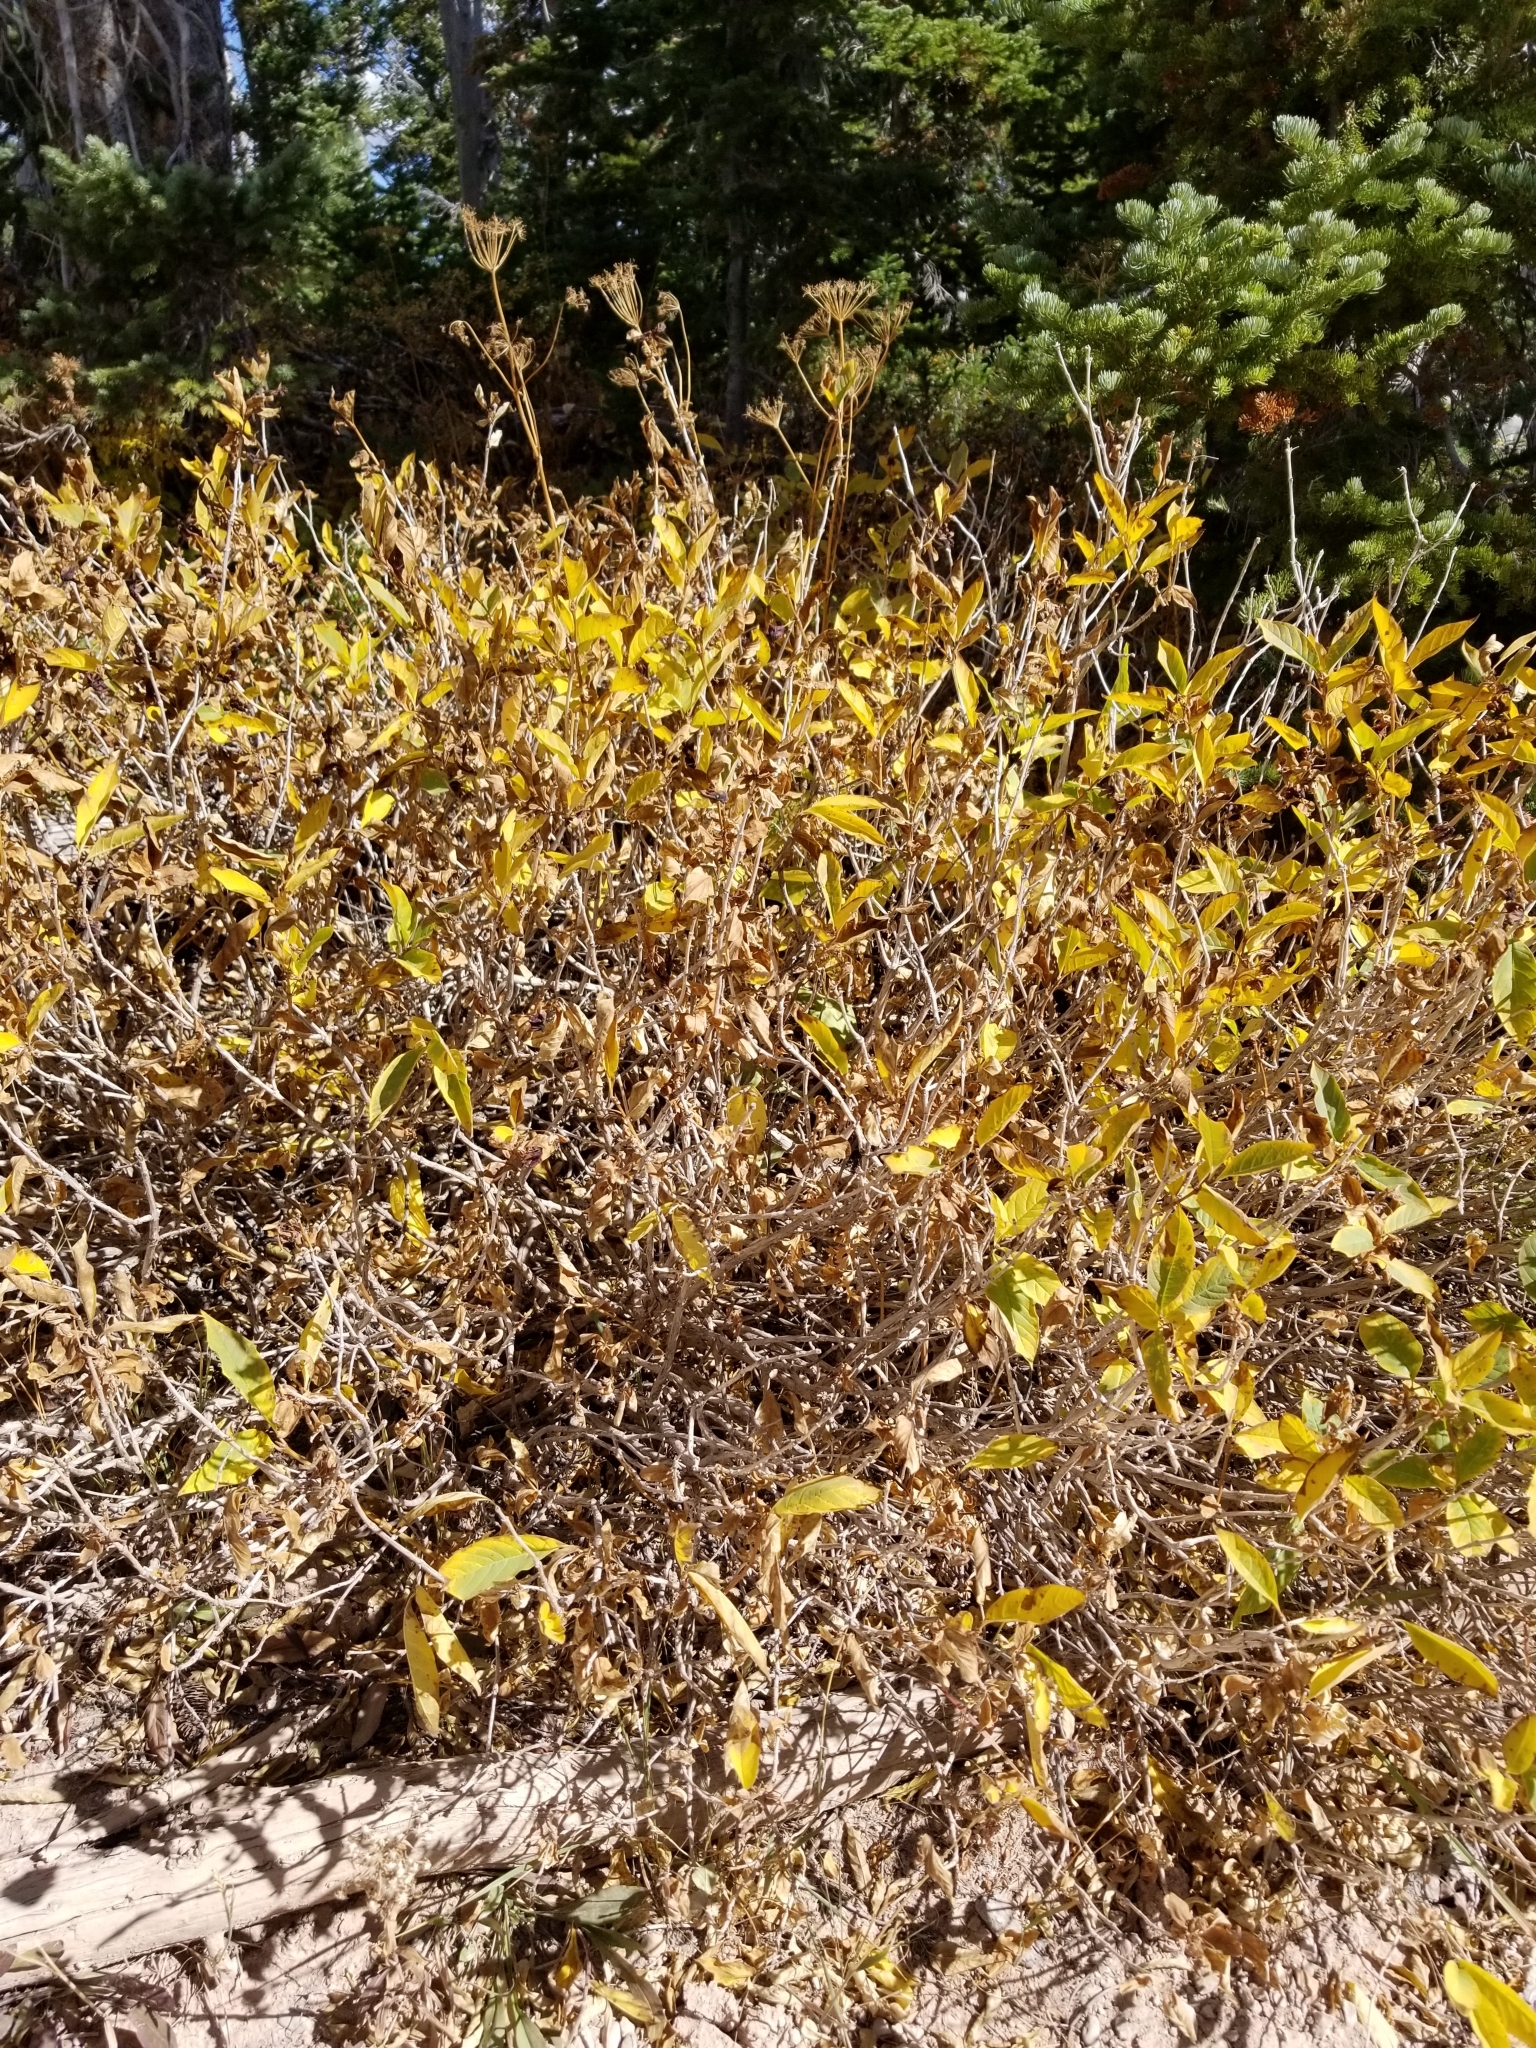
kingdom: Plantae
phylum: Tracheophyta
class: Magnoliopsida
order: Dipsacales
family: Caprifoliaceae
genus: Lonicera
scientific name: Lonicera involucrata
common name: Californian honeysuckle
